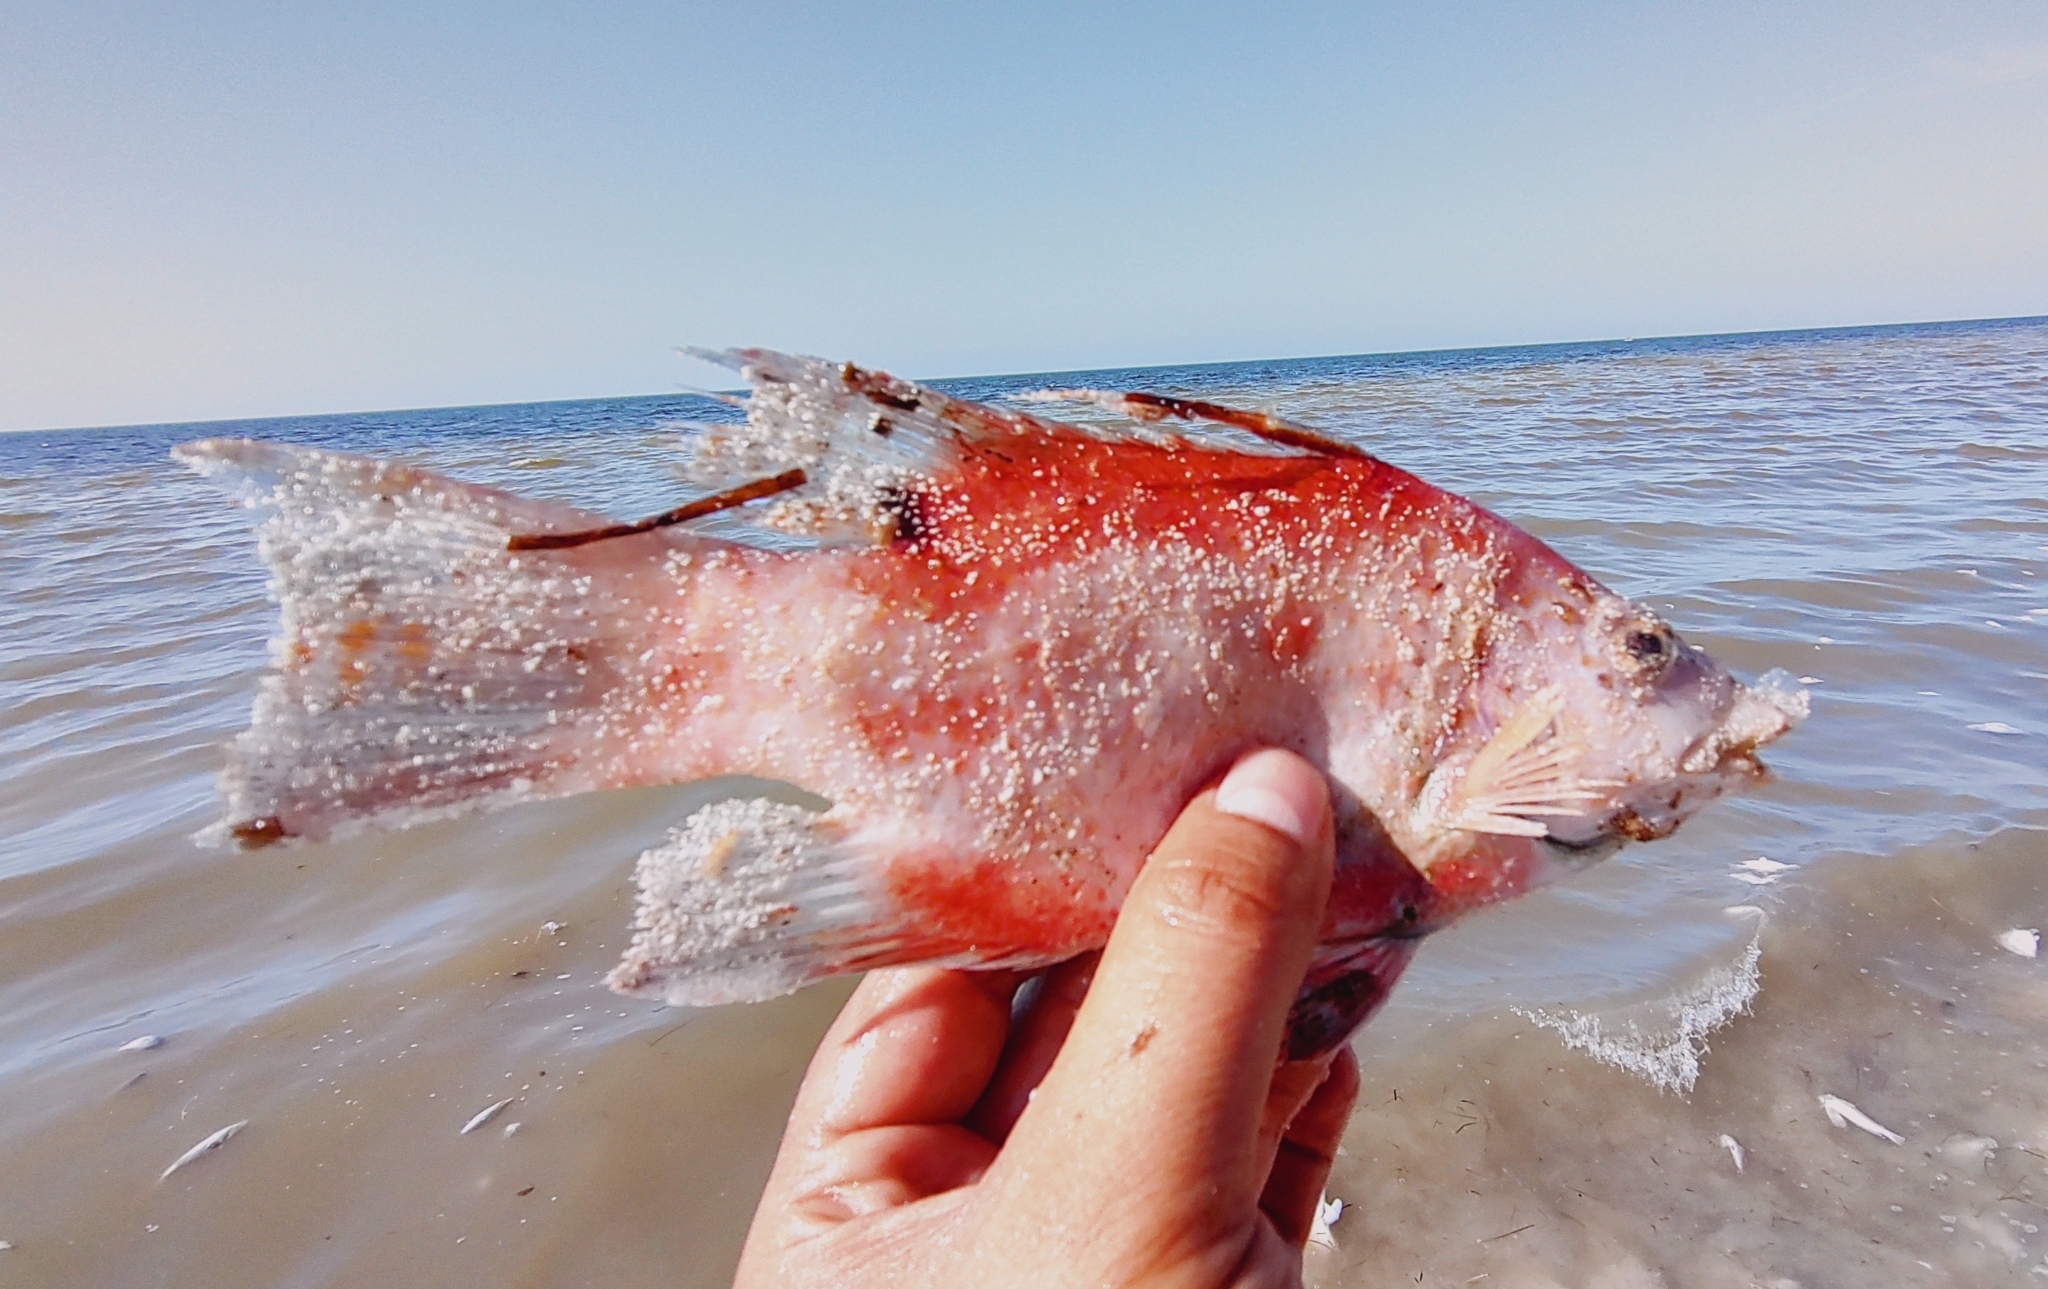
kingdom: Animalia
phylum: Chordata
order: Perciformes
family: Labridae
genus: Lachnolaimus
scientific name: Lachnolaimus maximus
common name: Hogfish
